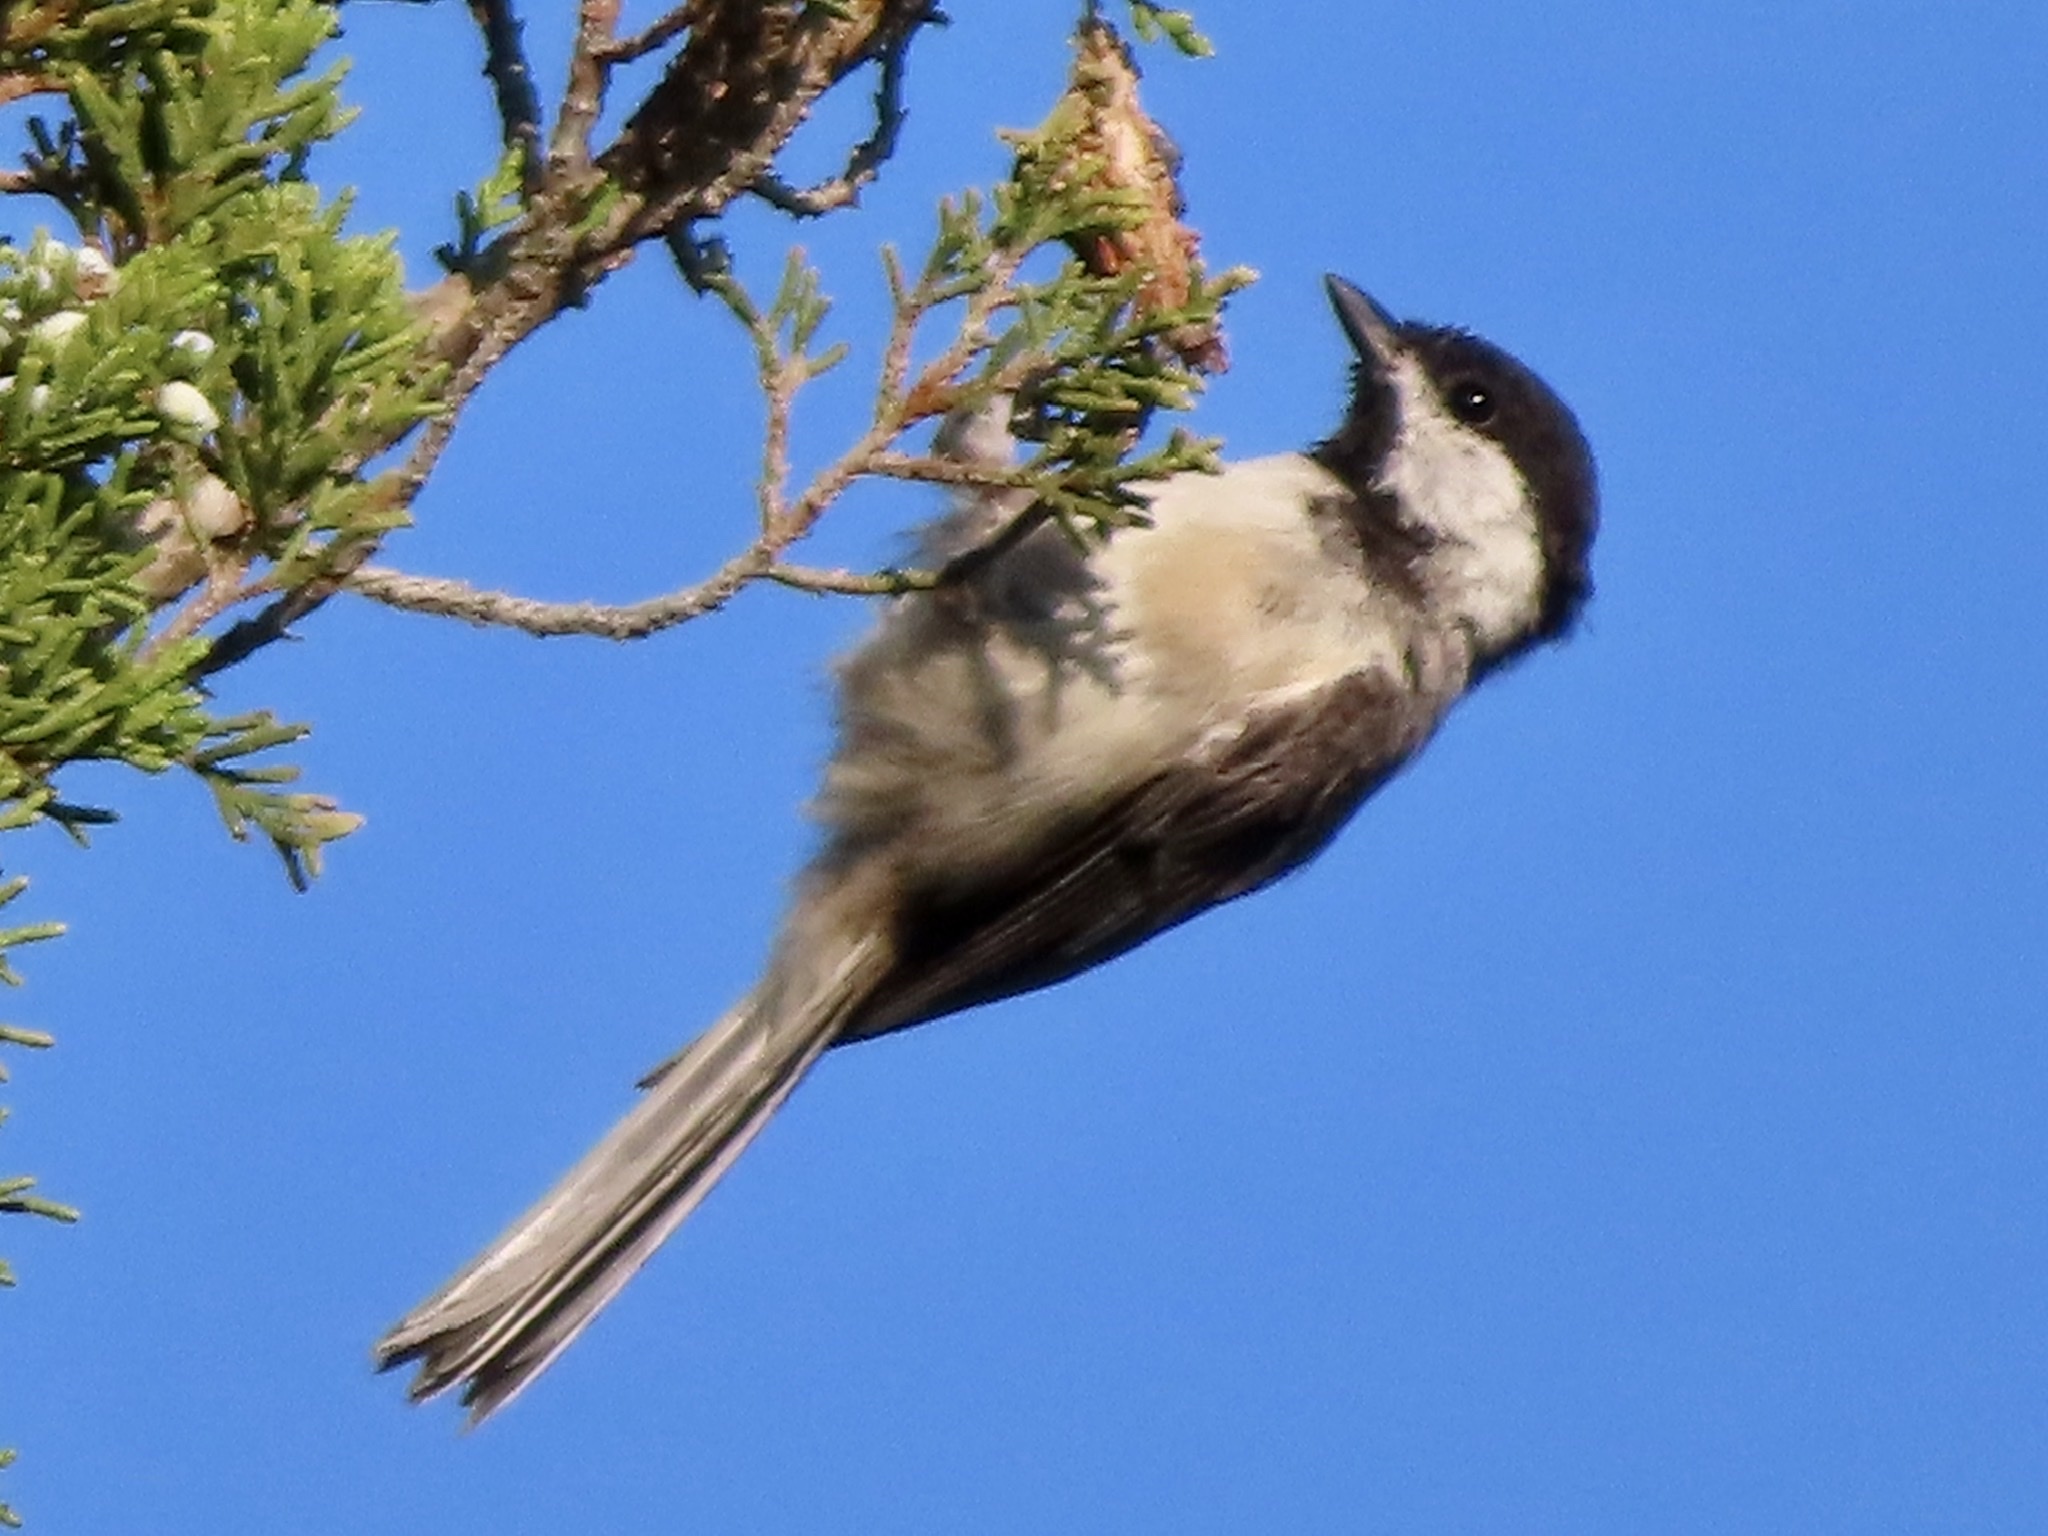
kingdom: Animalia
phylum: Chordata
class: Aves
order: Passeriformes
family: Paridae
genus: Poecile
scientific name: Poecile carolinensis
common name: Carolina chickadee
